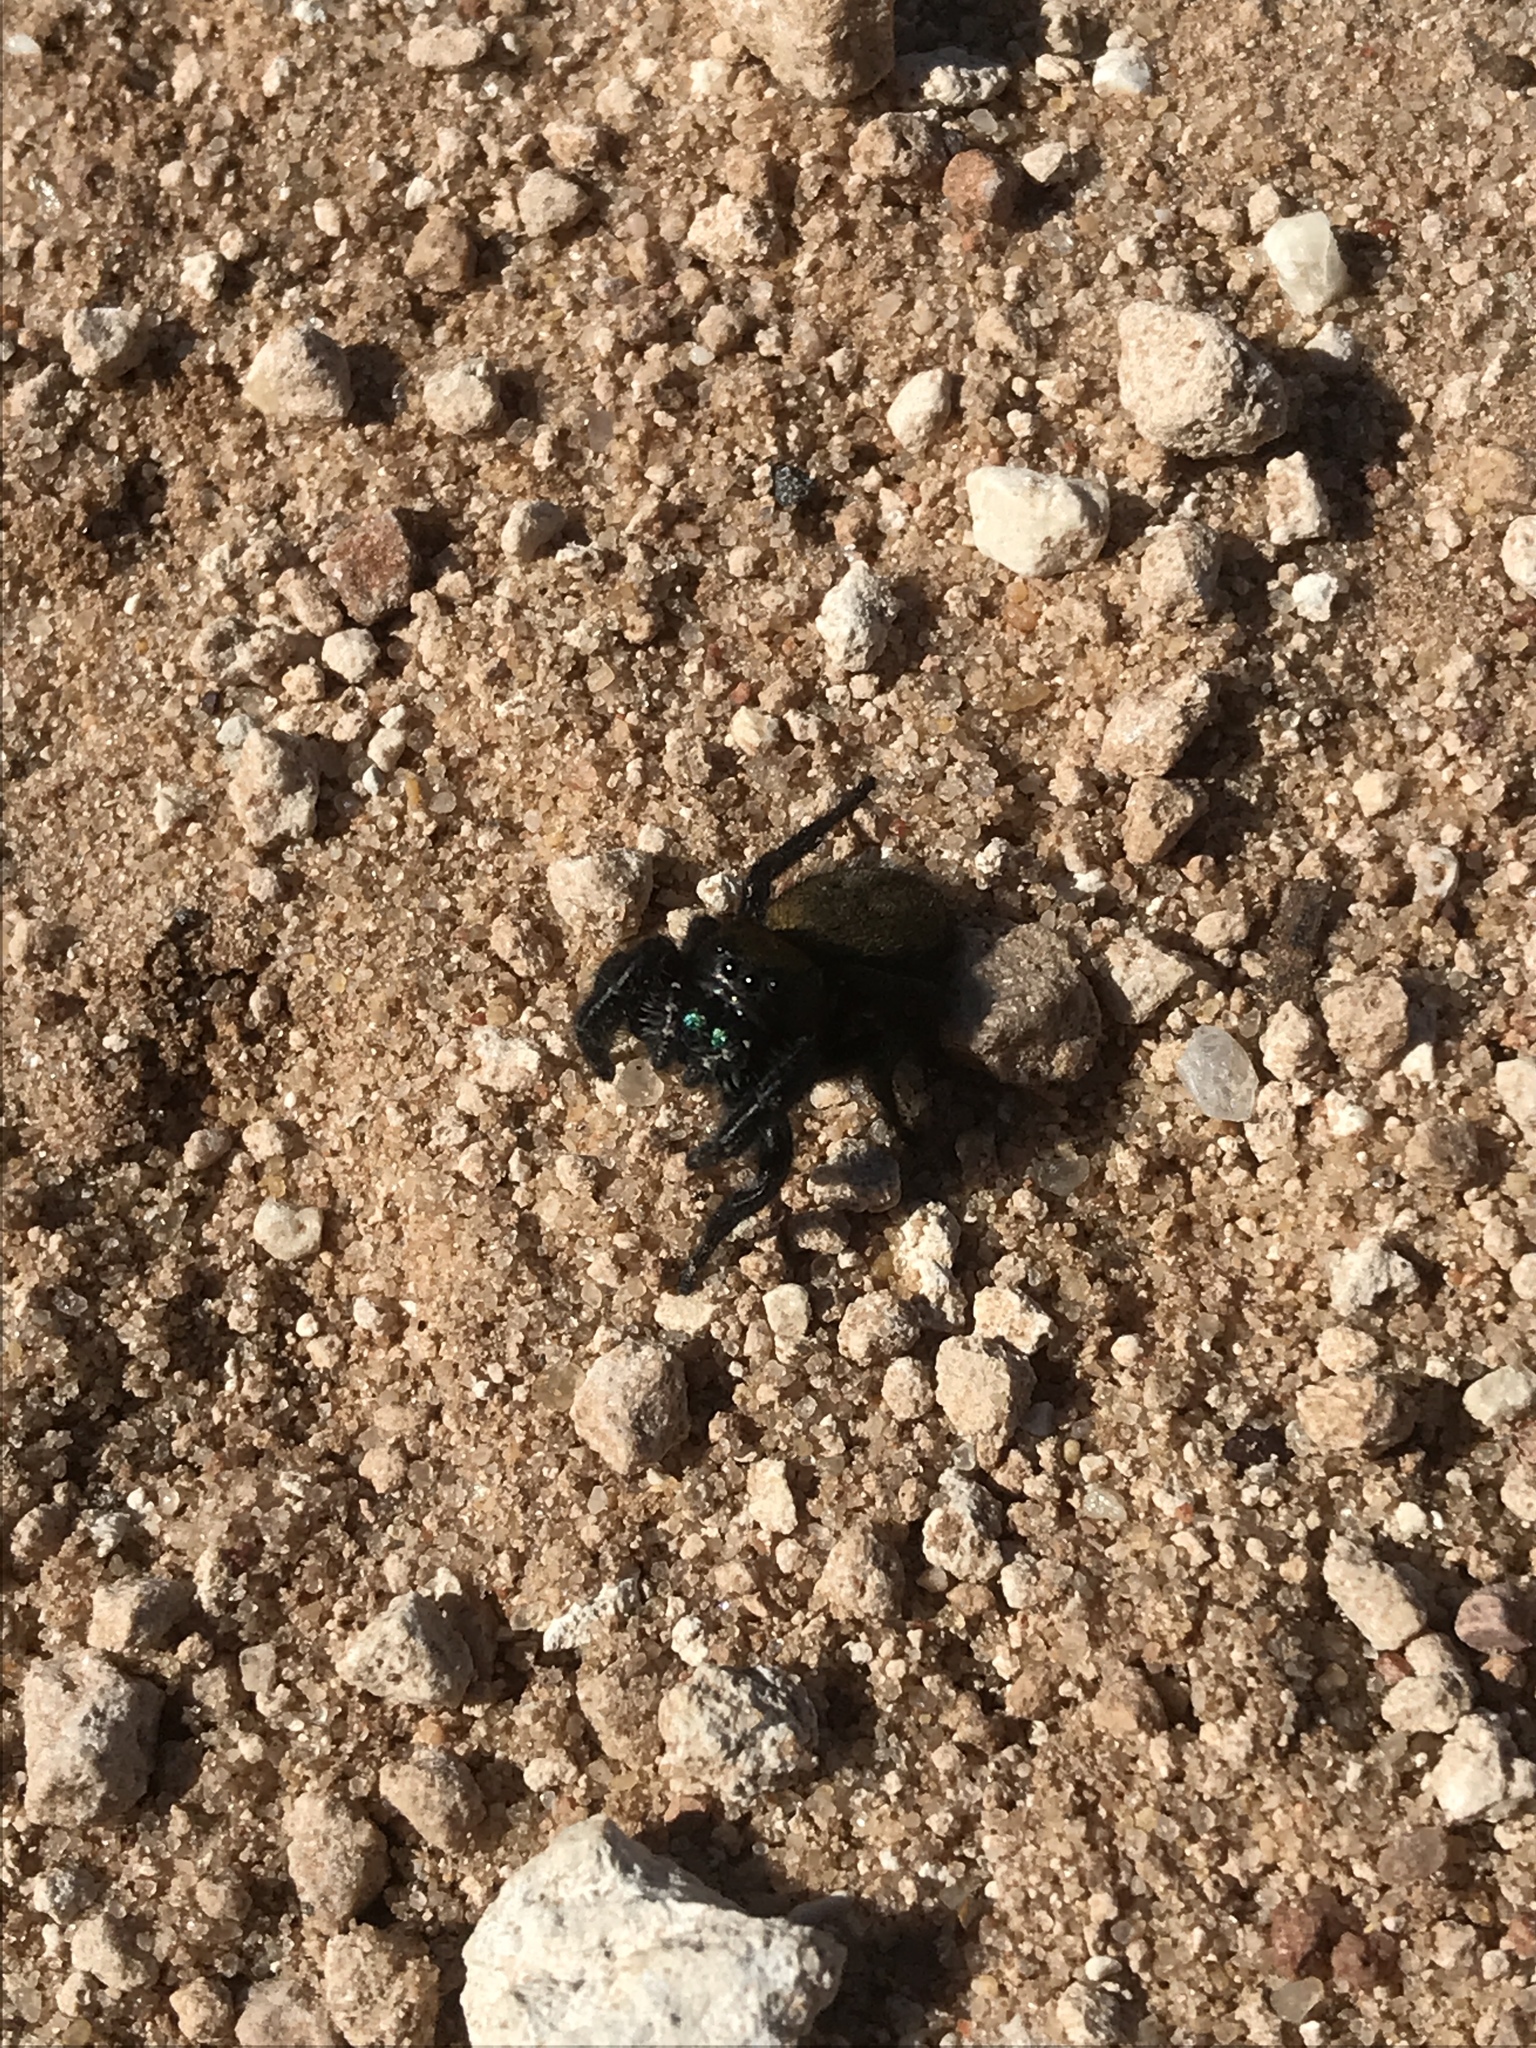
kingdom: Animalia
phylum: Arthropoda
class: Arachnida
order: Araneae
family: Salticidae
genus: Phidippus
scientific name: Phidippus apacheanus
